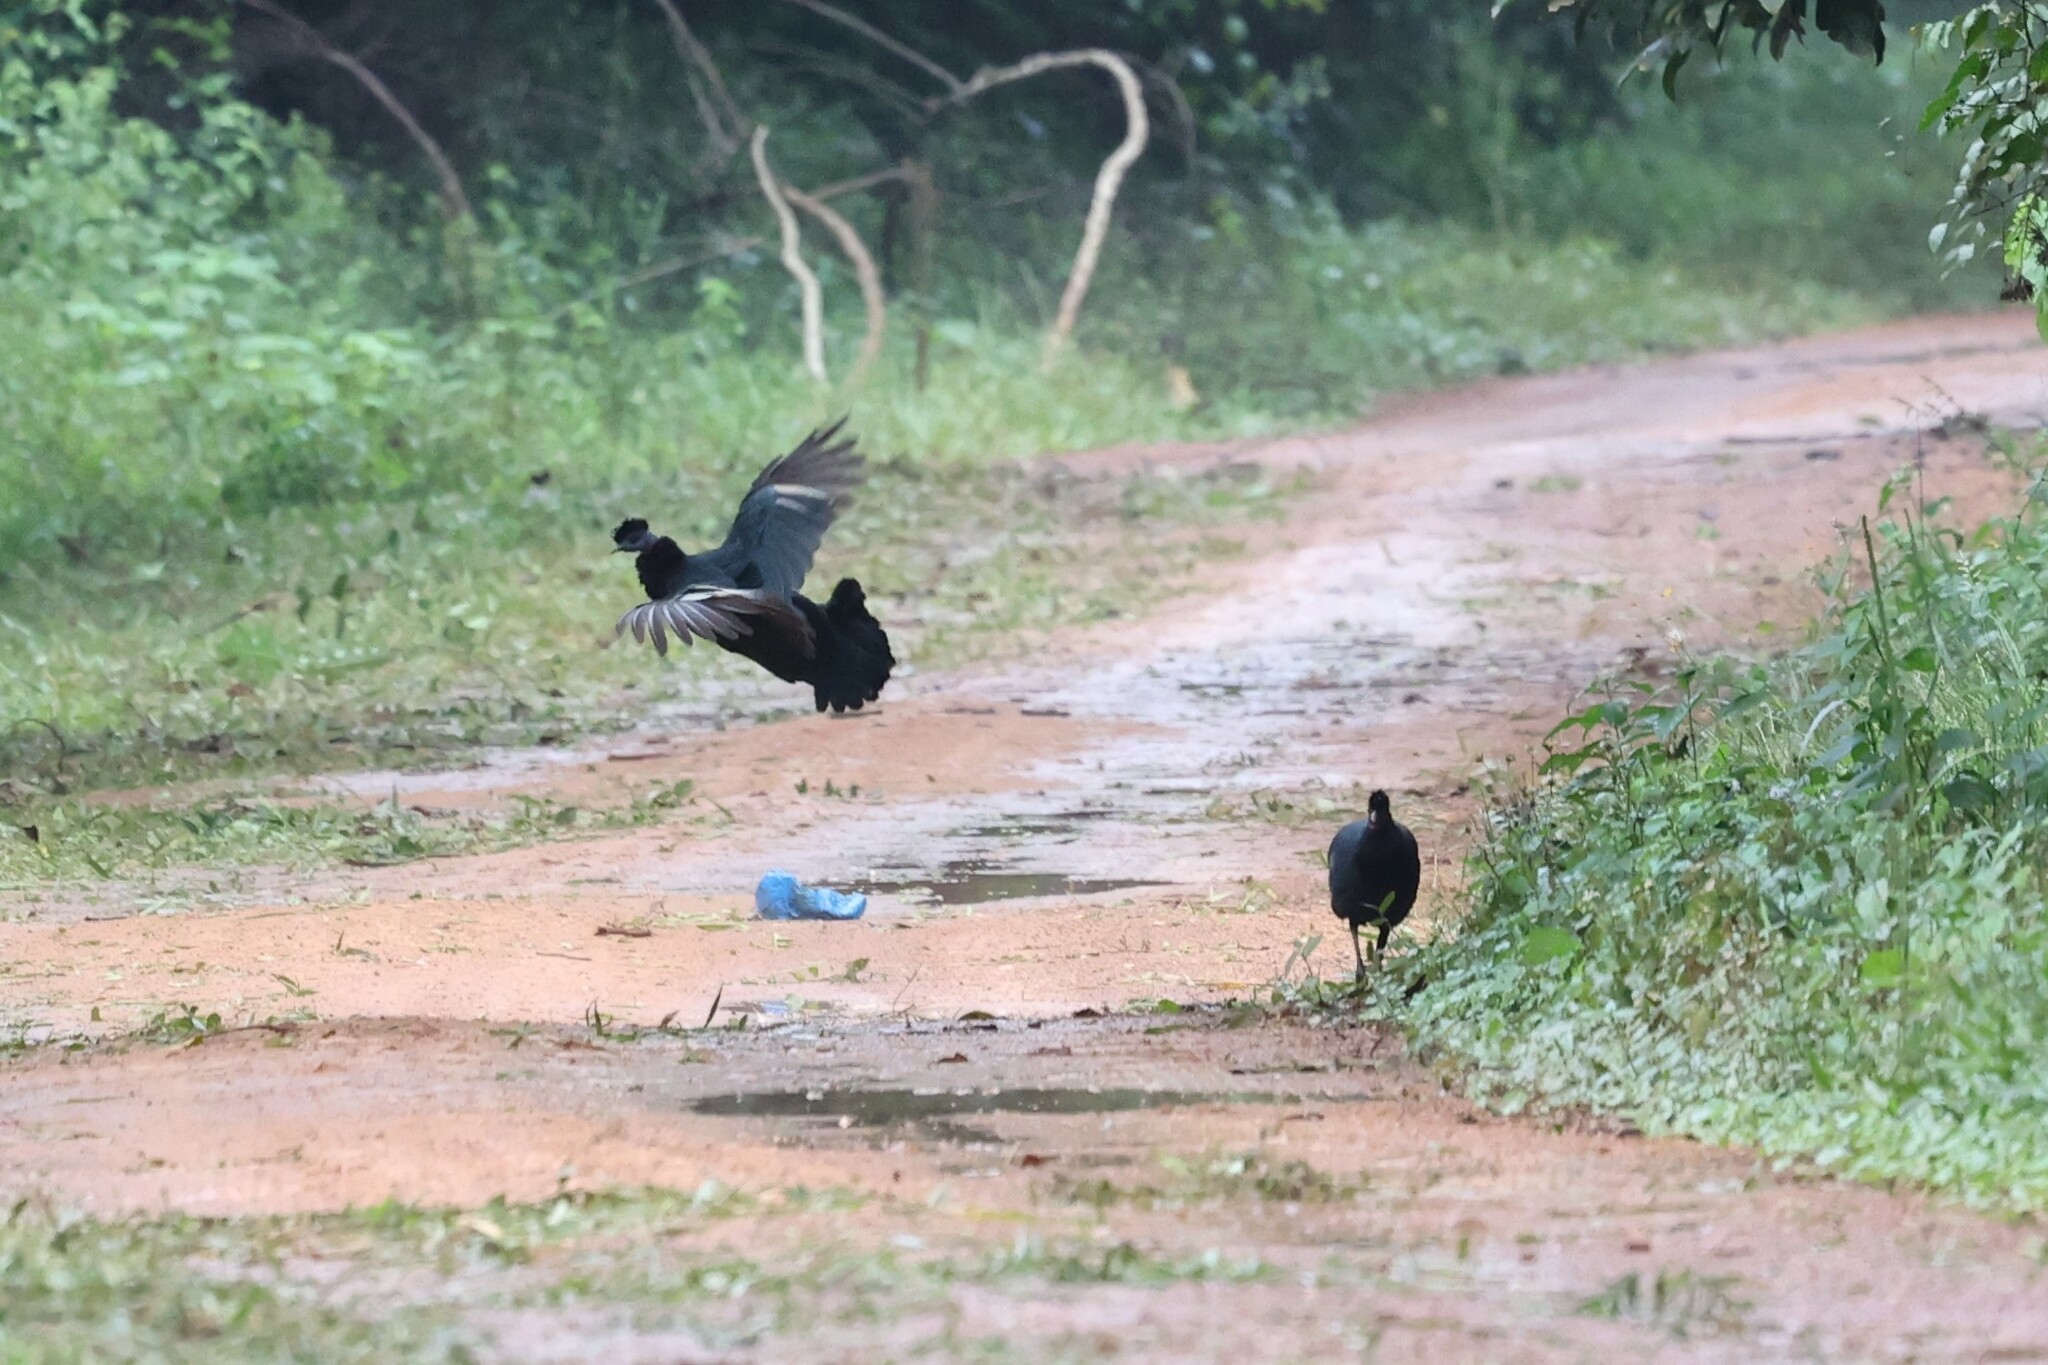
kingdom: Animalia
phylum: Chordata
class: Aves
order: Galliformes
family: Numididae
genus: Guttera
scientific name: Guttera pucherani
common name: Crested guineafowl
